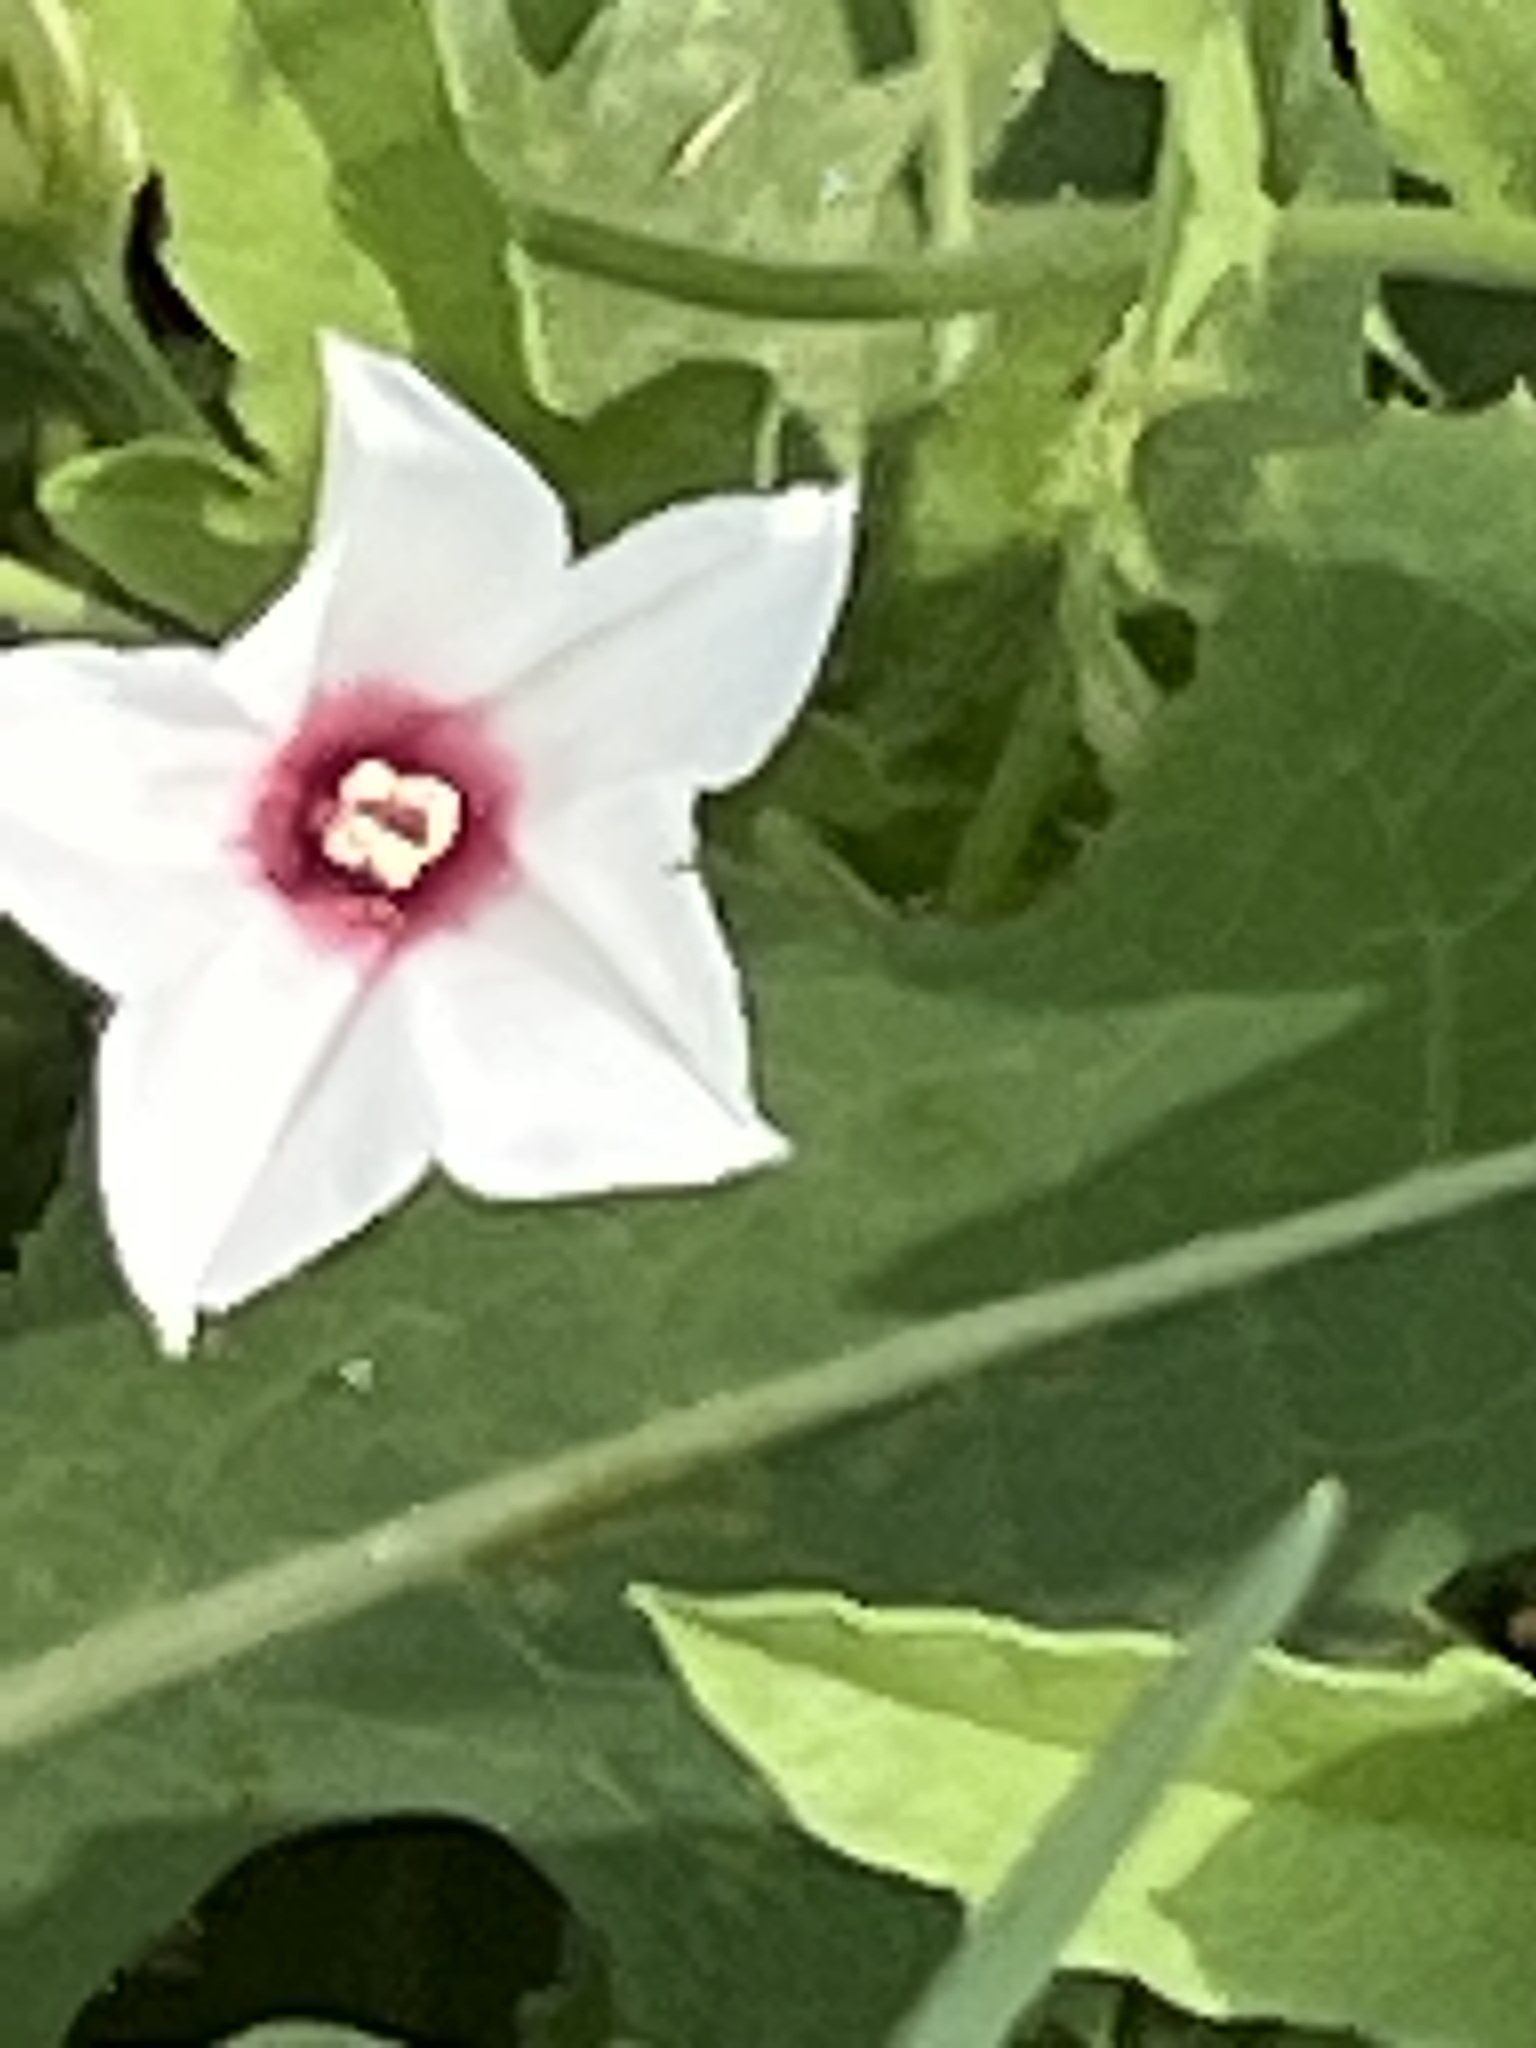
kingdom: Plantae
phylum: Tracheophyta
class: Magnoliopsida
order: Solanales
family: Convolvulaceae
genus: Convolvulus
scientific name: Convolvulus equitans
